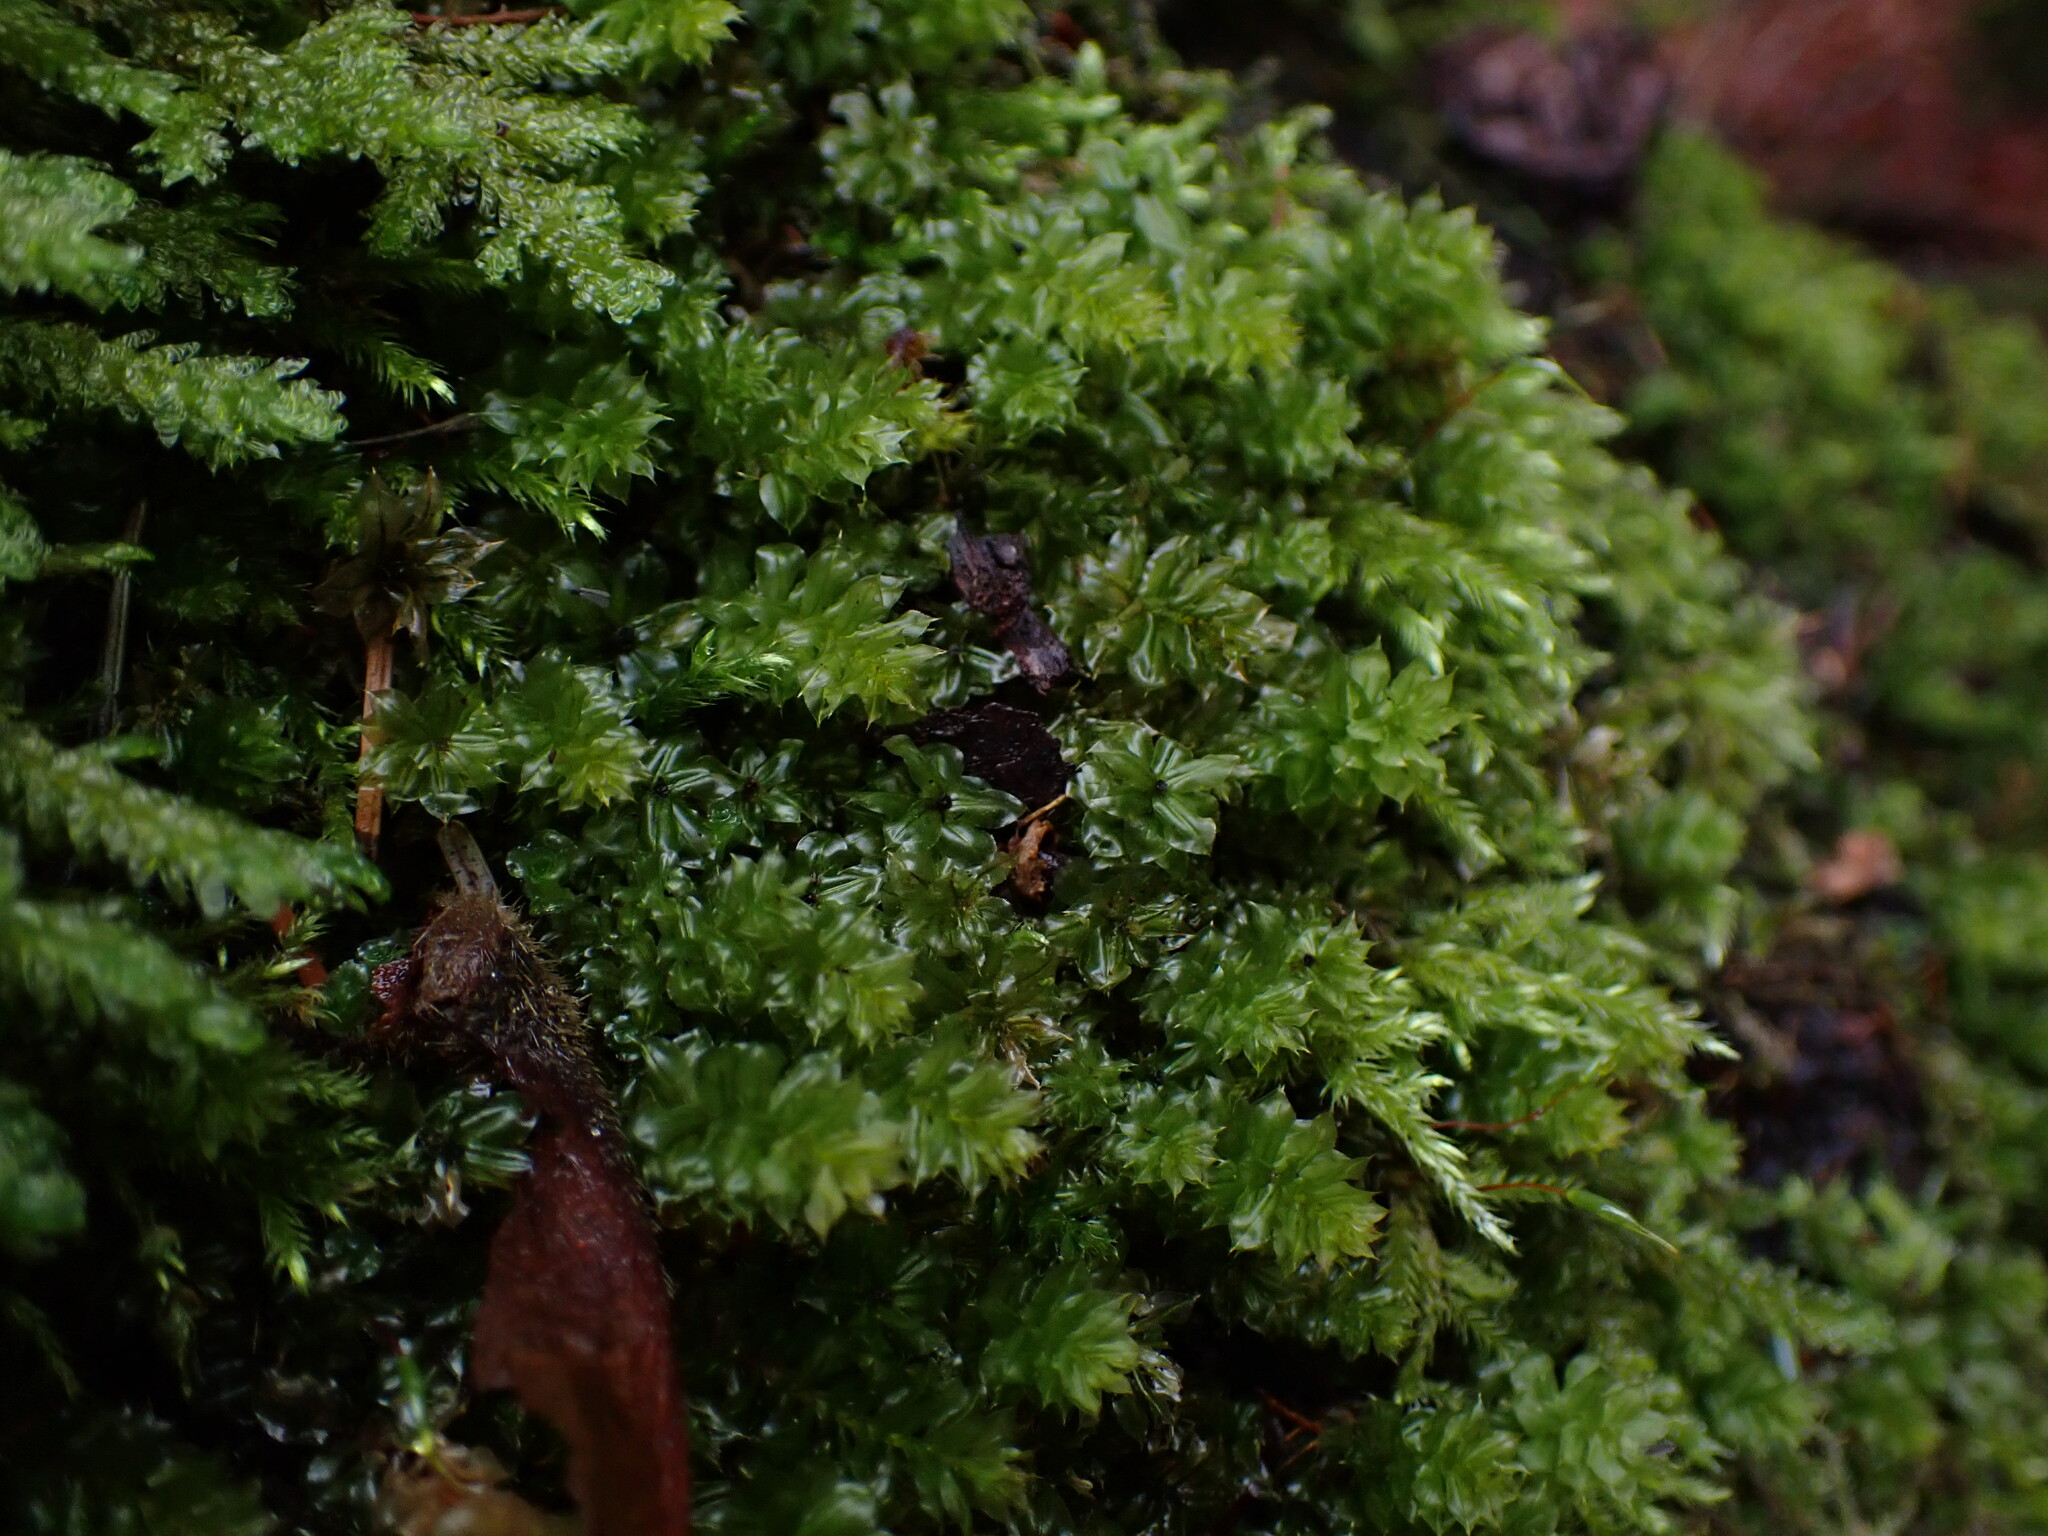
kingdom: Plantae
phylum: Bryophyta
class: Bryopsida
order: Bryales
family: Mniaceae
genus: Plagiomnium
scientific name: Plagiomnium venustum
